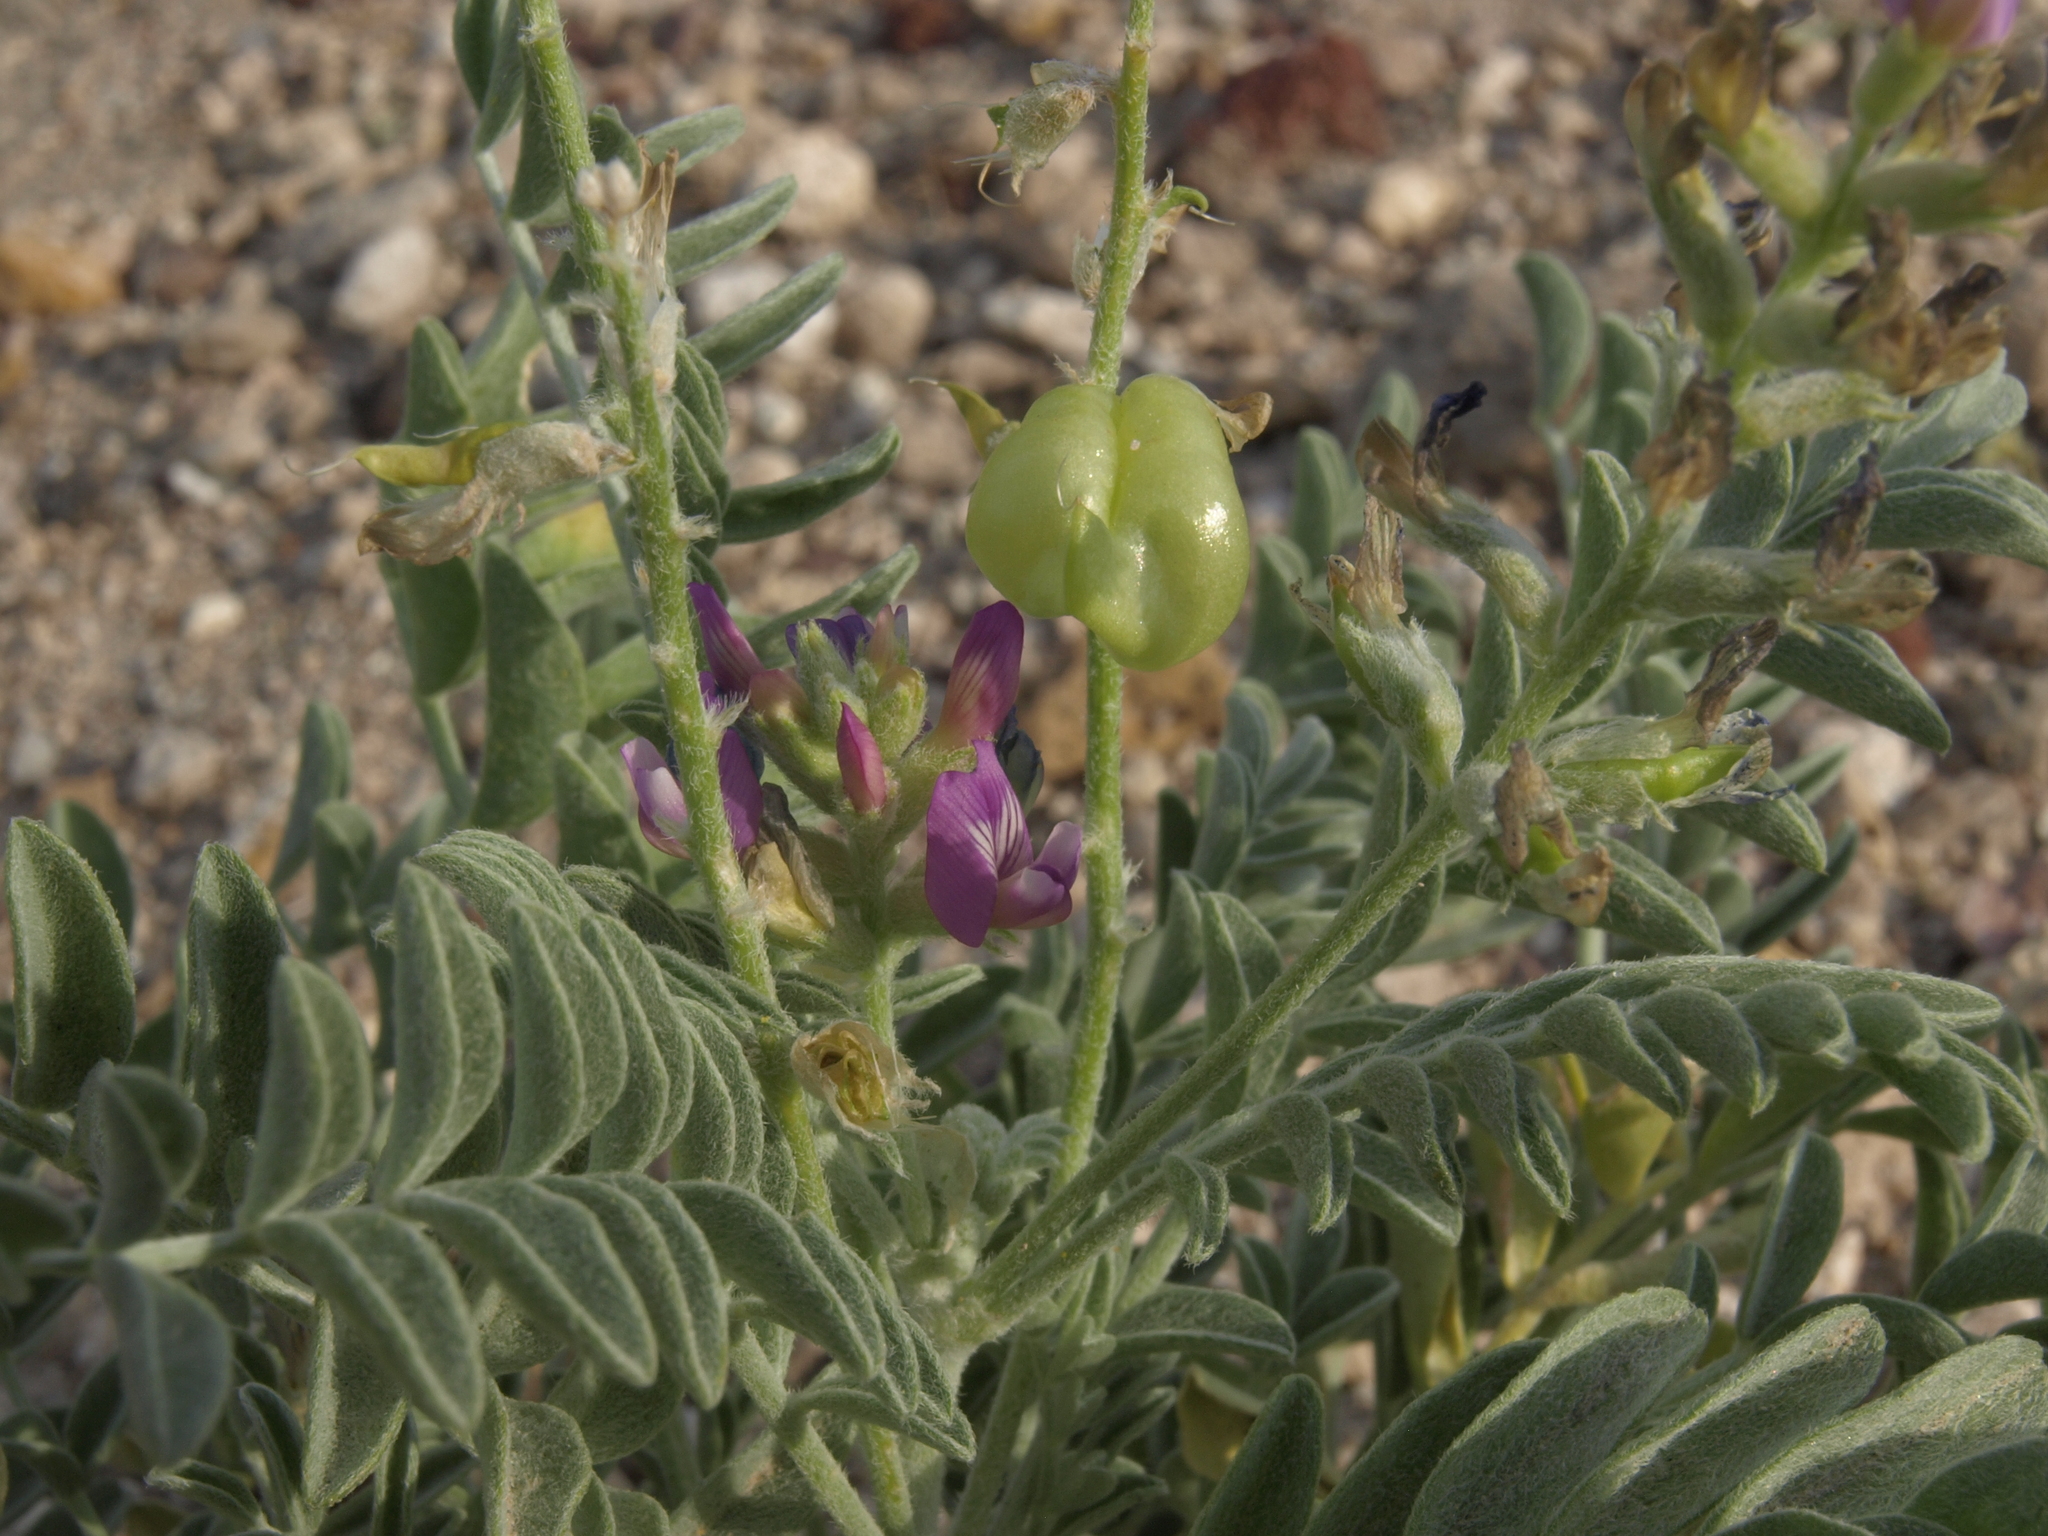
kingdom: Plantae
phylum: Tracheophyta
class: Magnoliopsida
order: Fabales
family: Fabaceae
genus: Astragalus
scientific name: Astragalus lentiginosus
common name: Freckled milkvetch
